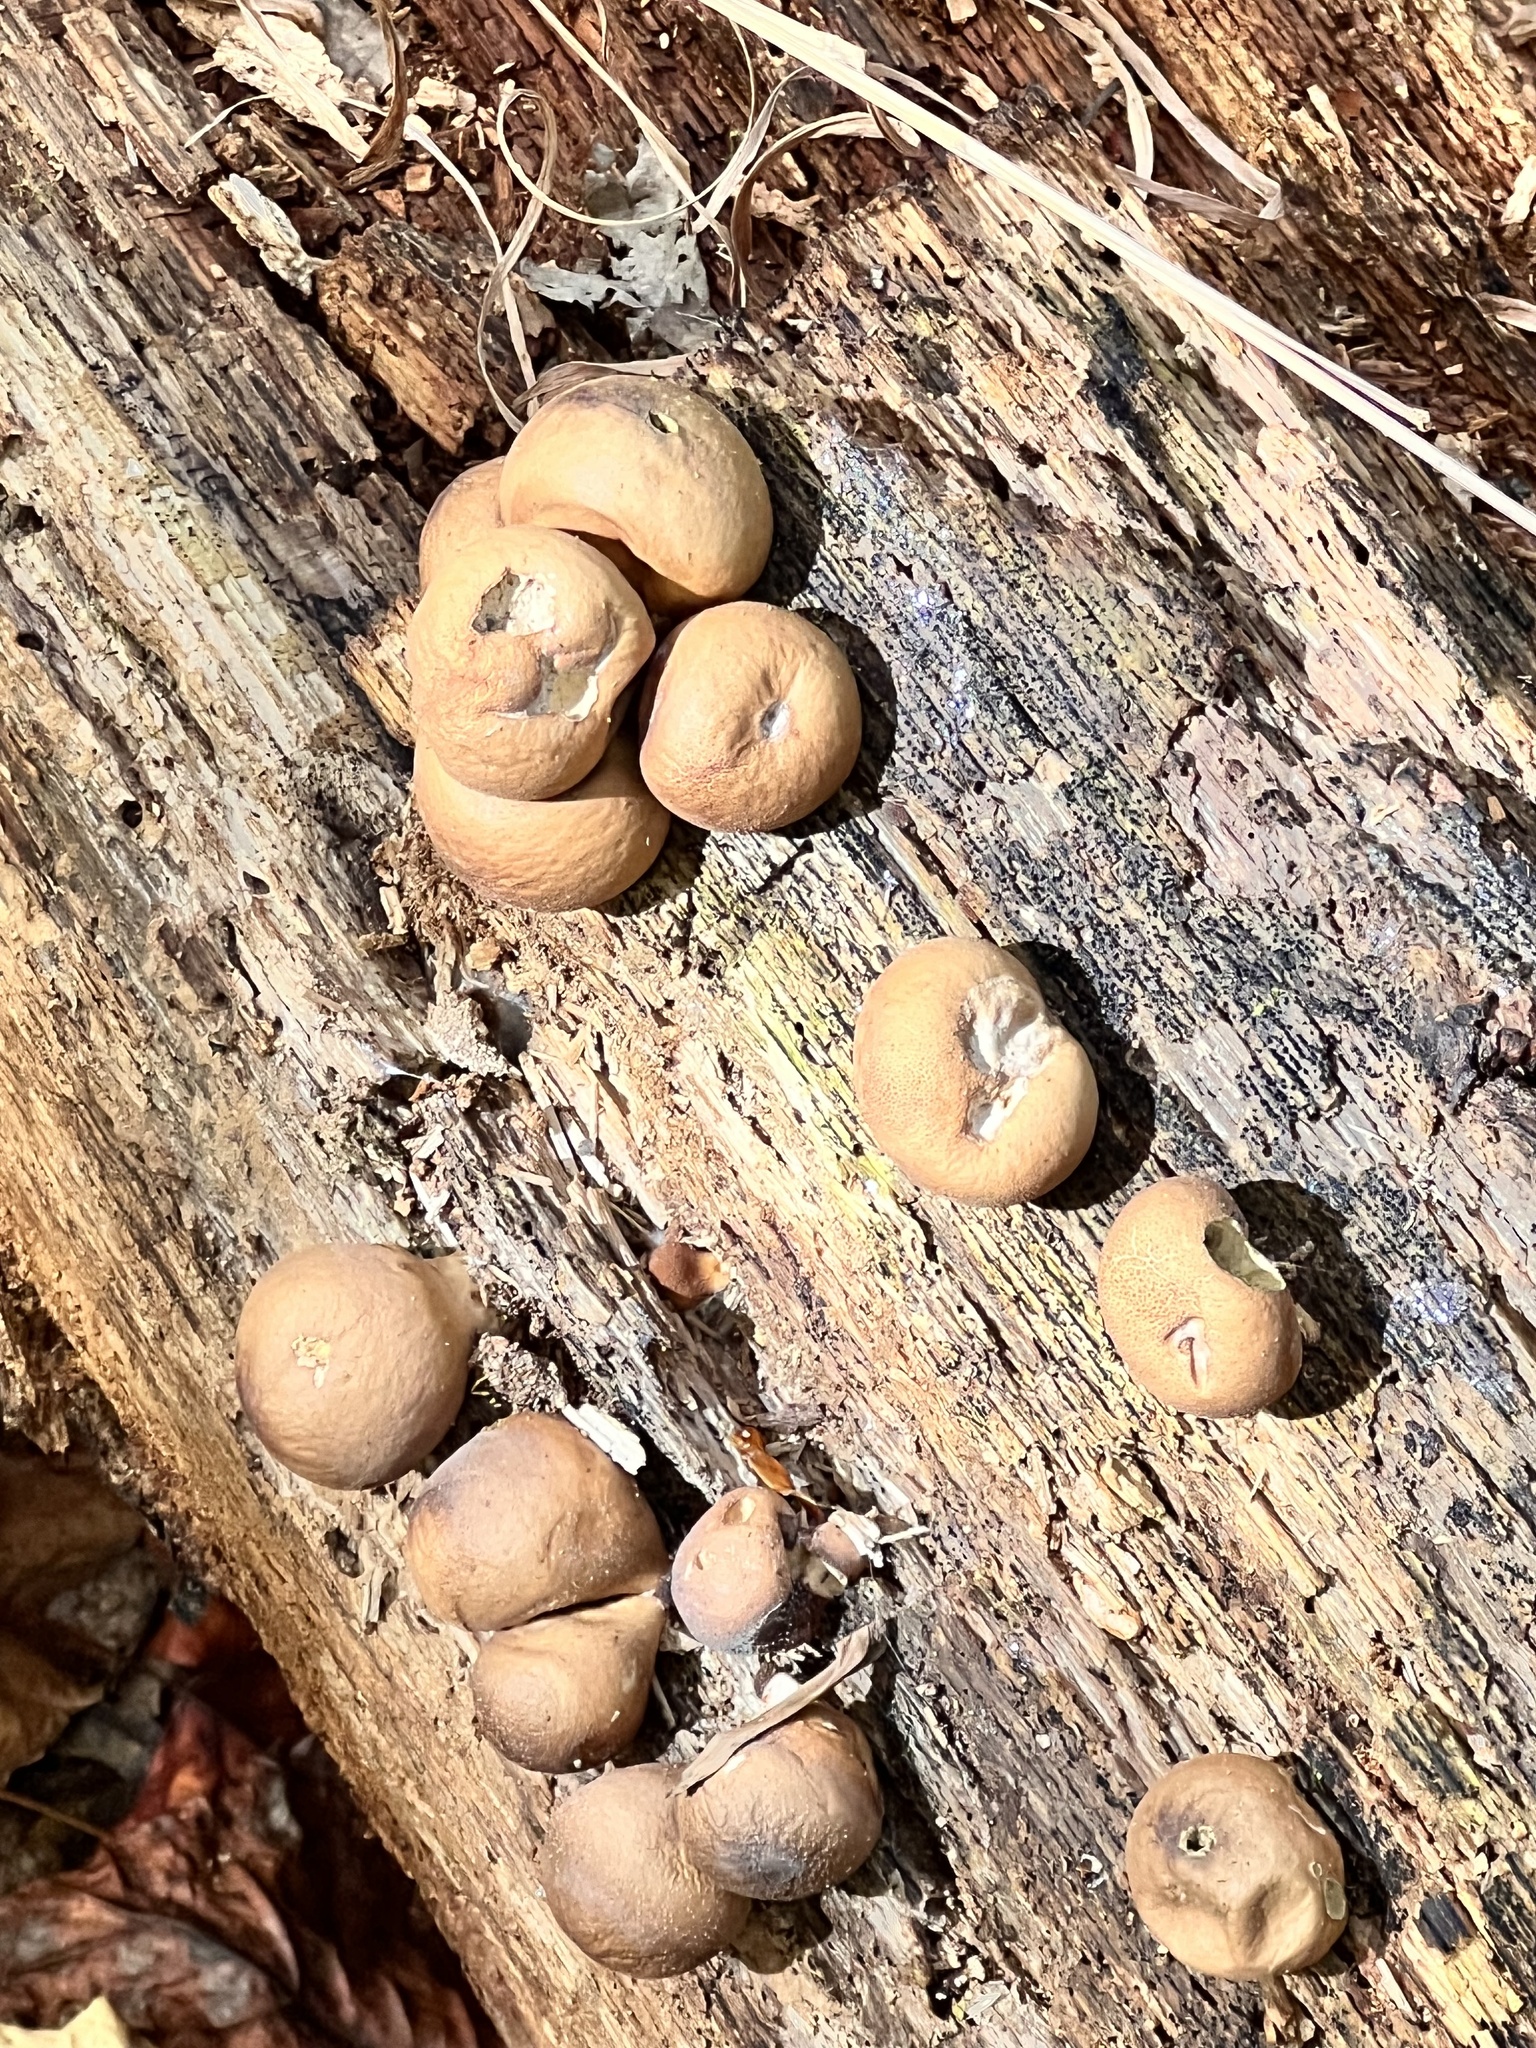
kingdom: Fungi
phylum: Basidiomycota
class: Agaricomycetes
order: Agaricales
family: Lycoperdaceae
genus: Apioperdon
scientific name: Apioperdon pyriforme
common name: Pear-shaped puffball
